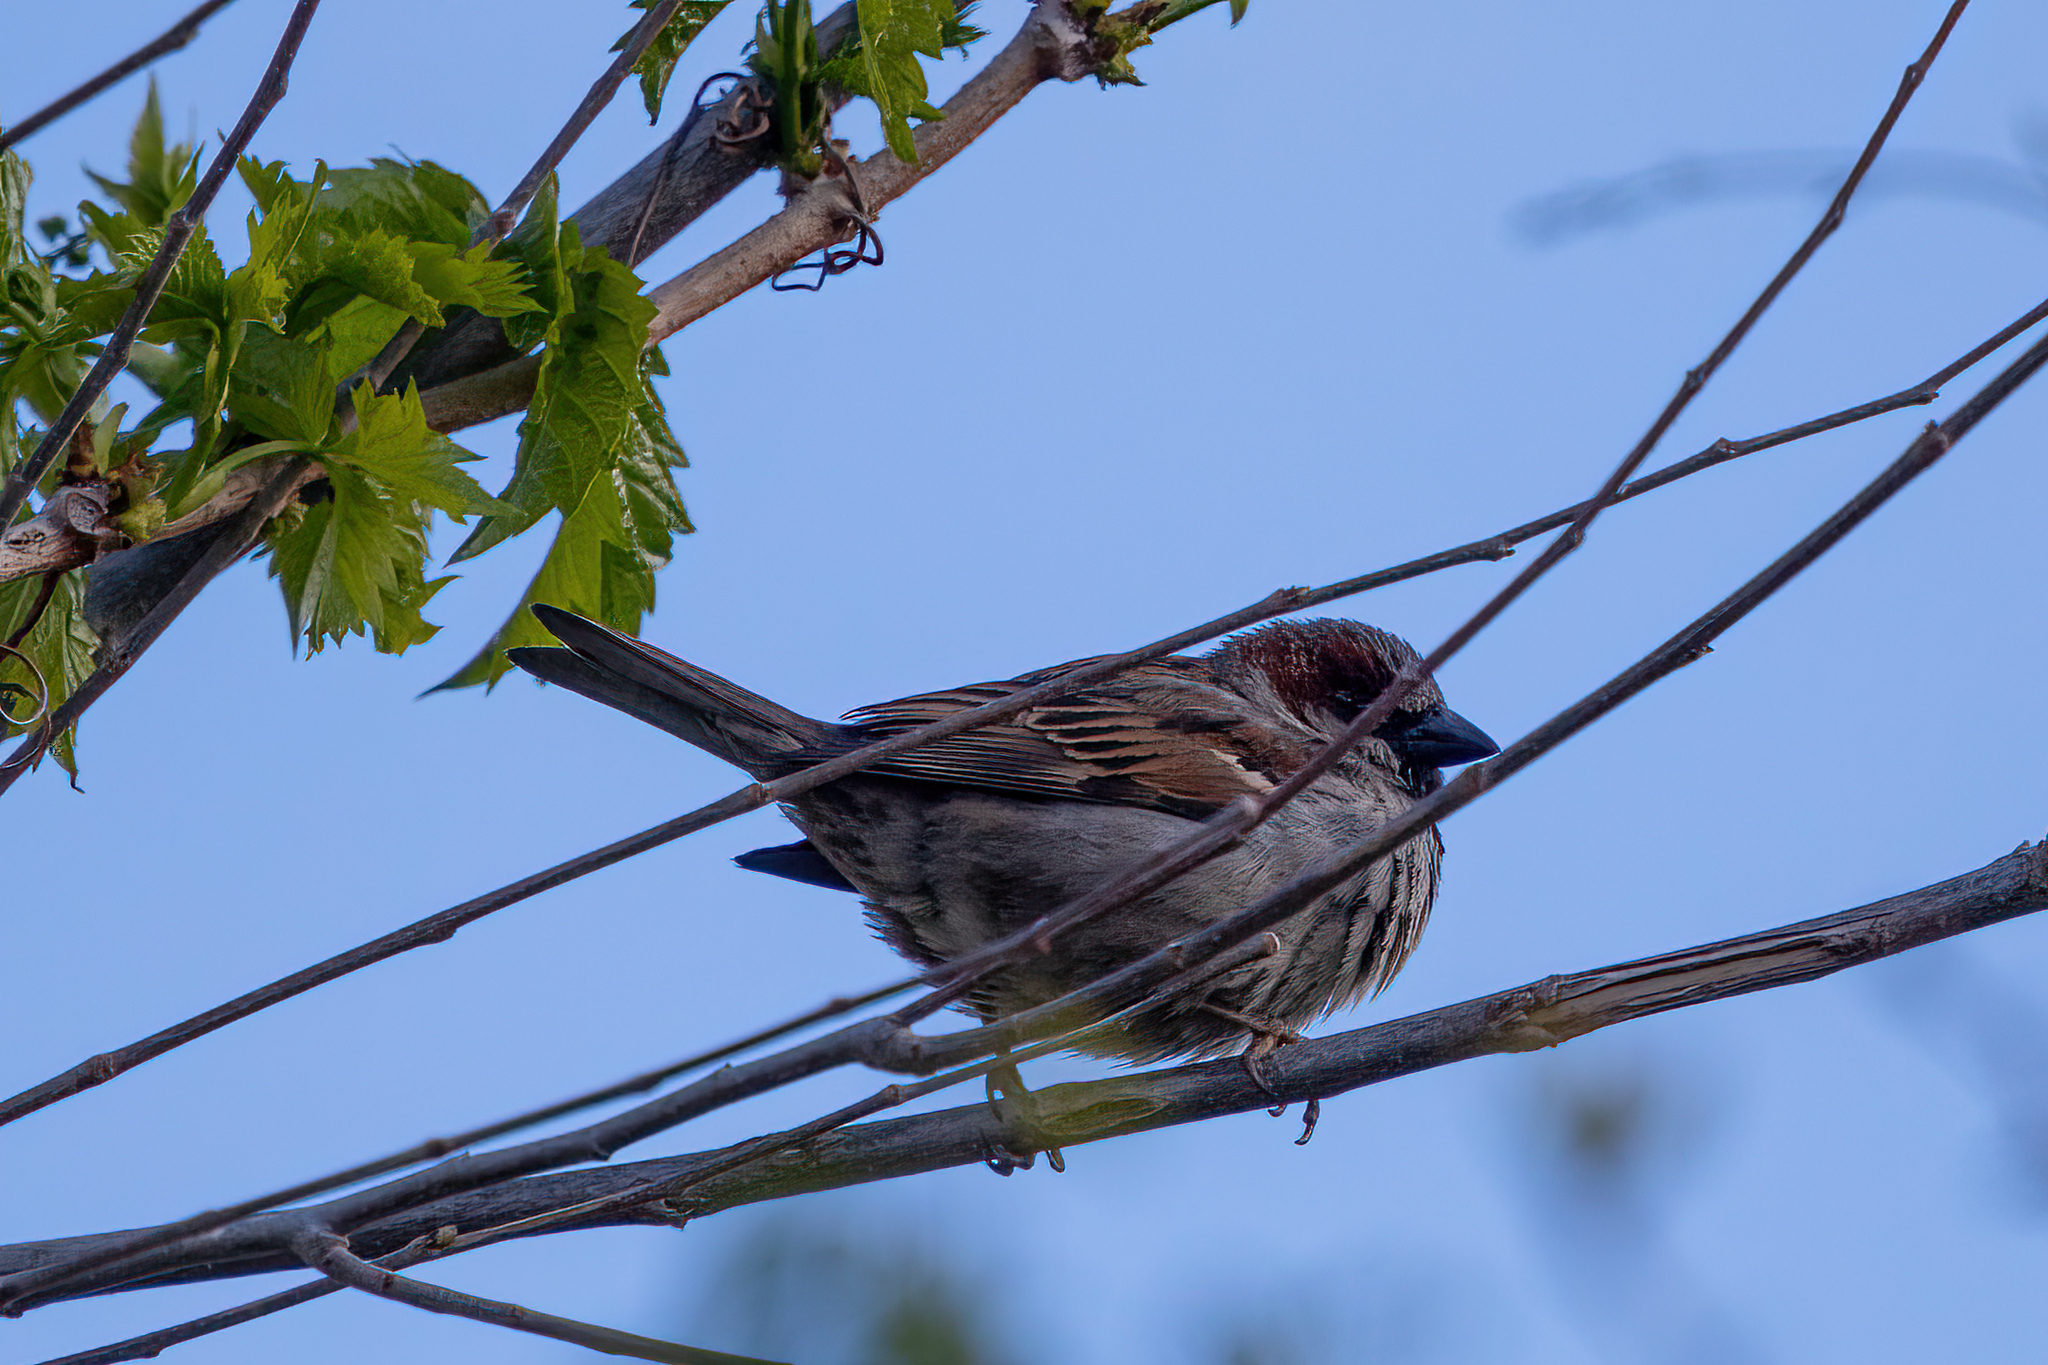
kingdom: Animalia
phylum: Chordata
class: Aves
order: Passeriformes
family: Passeridae
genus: Passer
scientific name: Passer domesticus
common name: House sparrow
